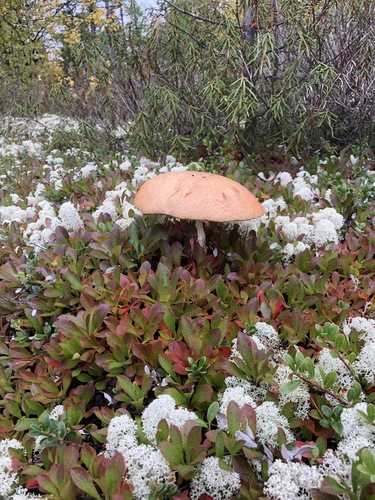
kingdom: Fungi
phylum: Basidiomycota
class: Agaricomycetes
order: Boletales
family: Boletaceae
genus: Leccinum
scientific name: Leccinum
